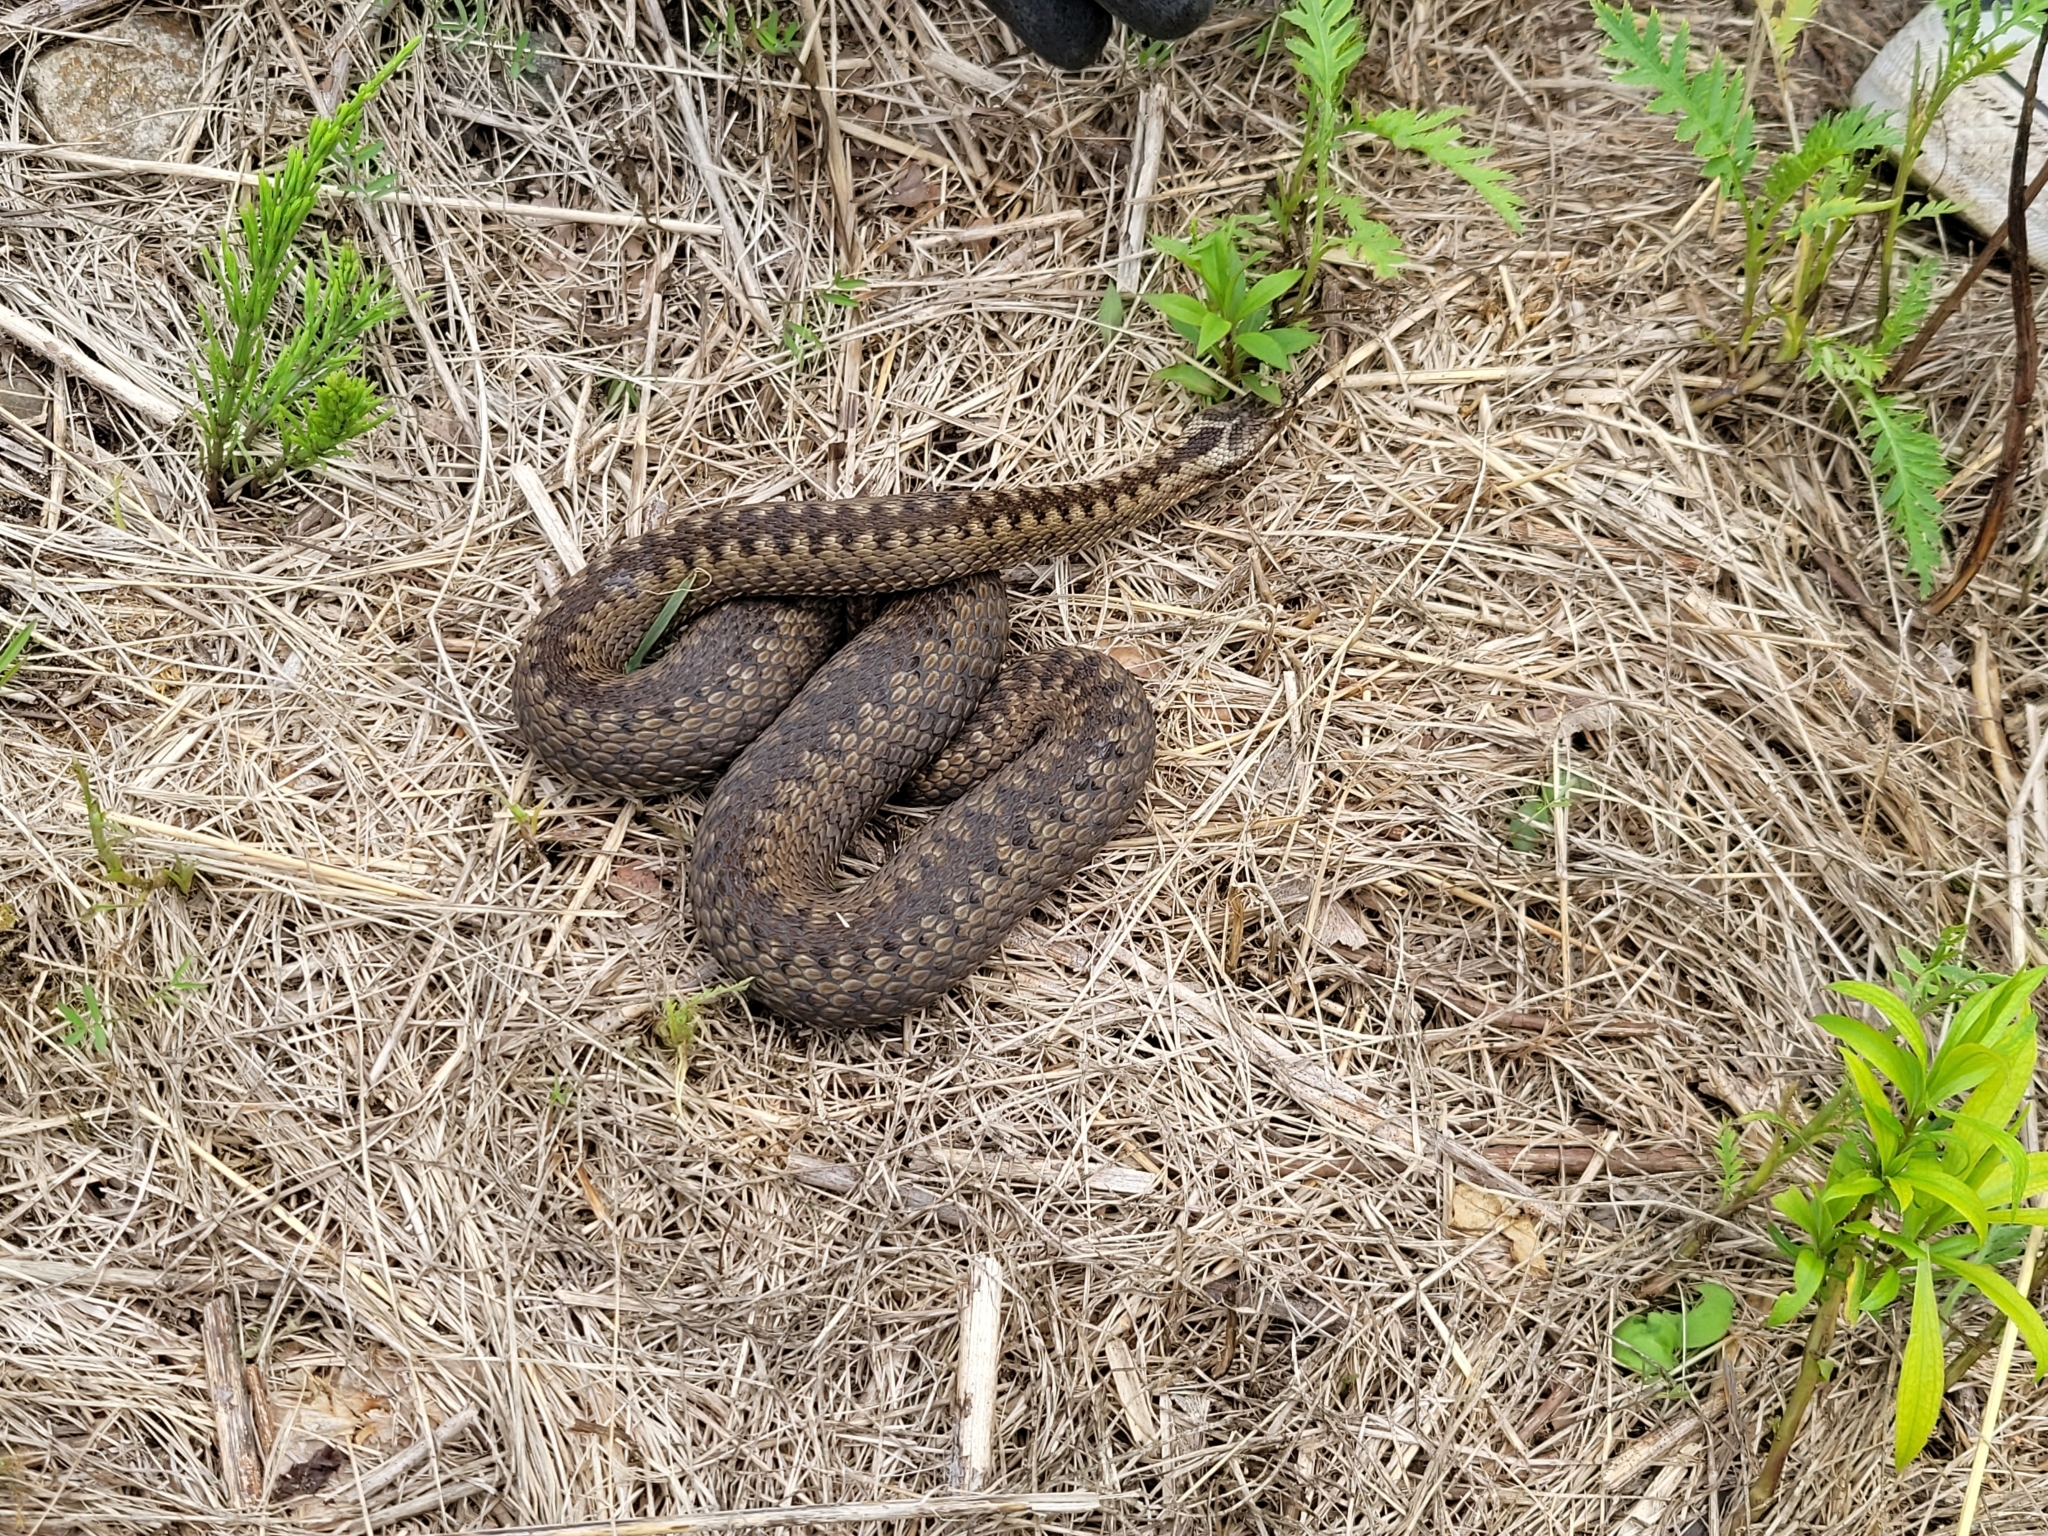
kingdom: Animalia
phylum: Chordata
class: Squamata
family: Viperidae
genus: Vipera
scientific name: Vipera berus
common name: Adder
